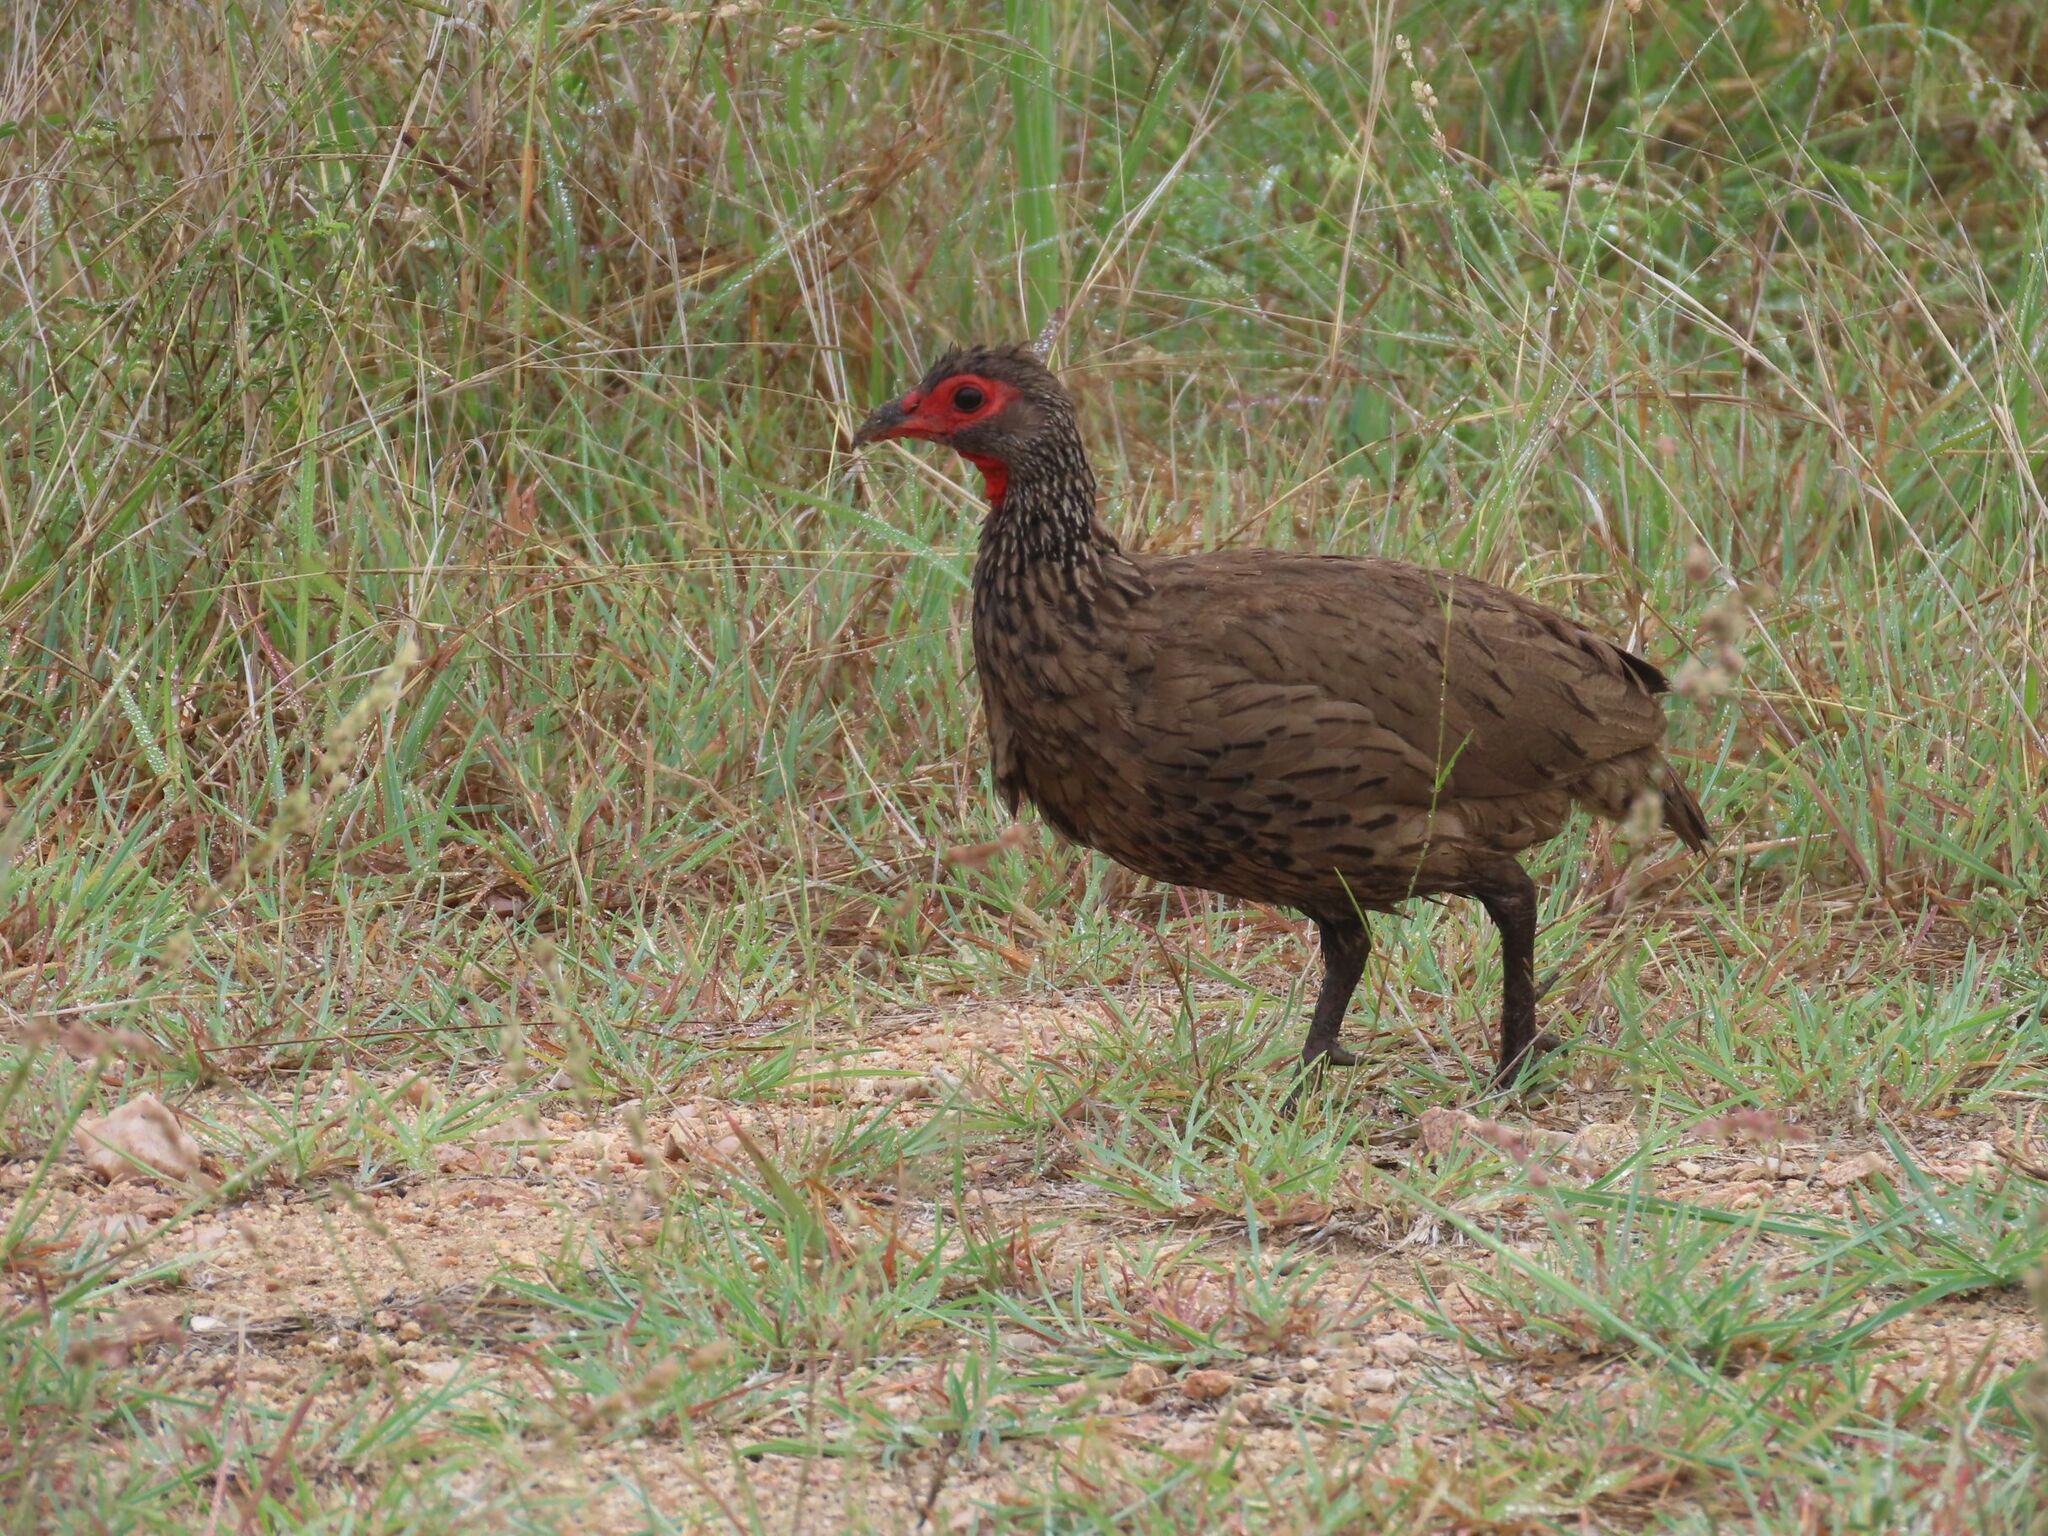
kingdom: Animalia
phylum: Chordata
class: Aves
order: Galliformes
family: Phasianidae
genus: Pternistis
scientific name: Pternistis swainsonii
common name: Swainson's spurfowl
